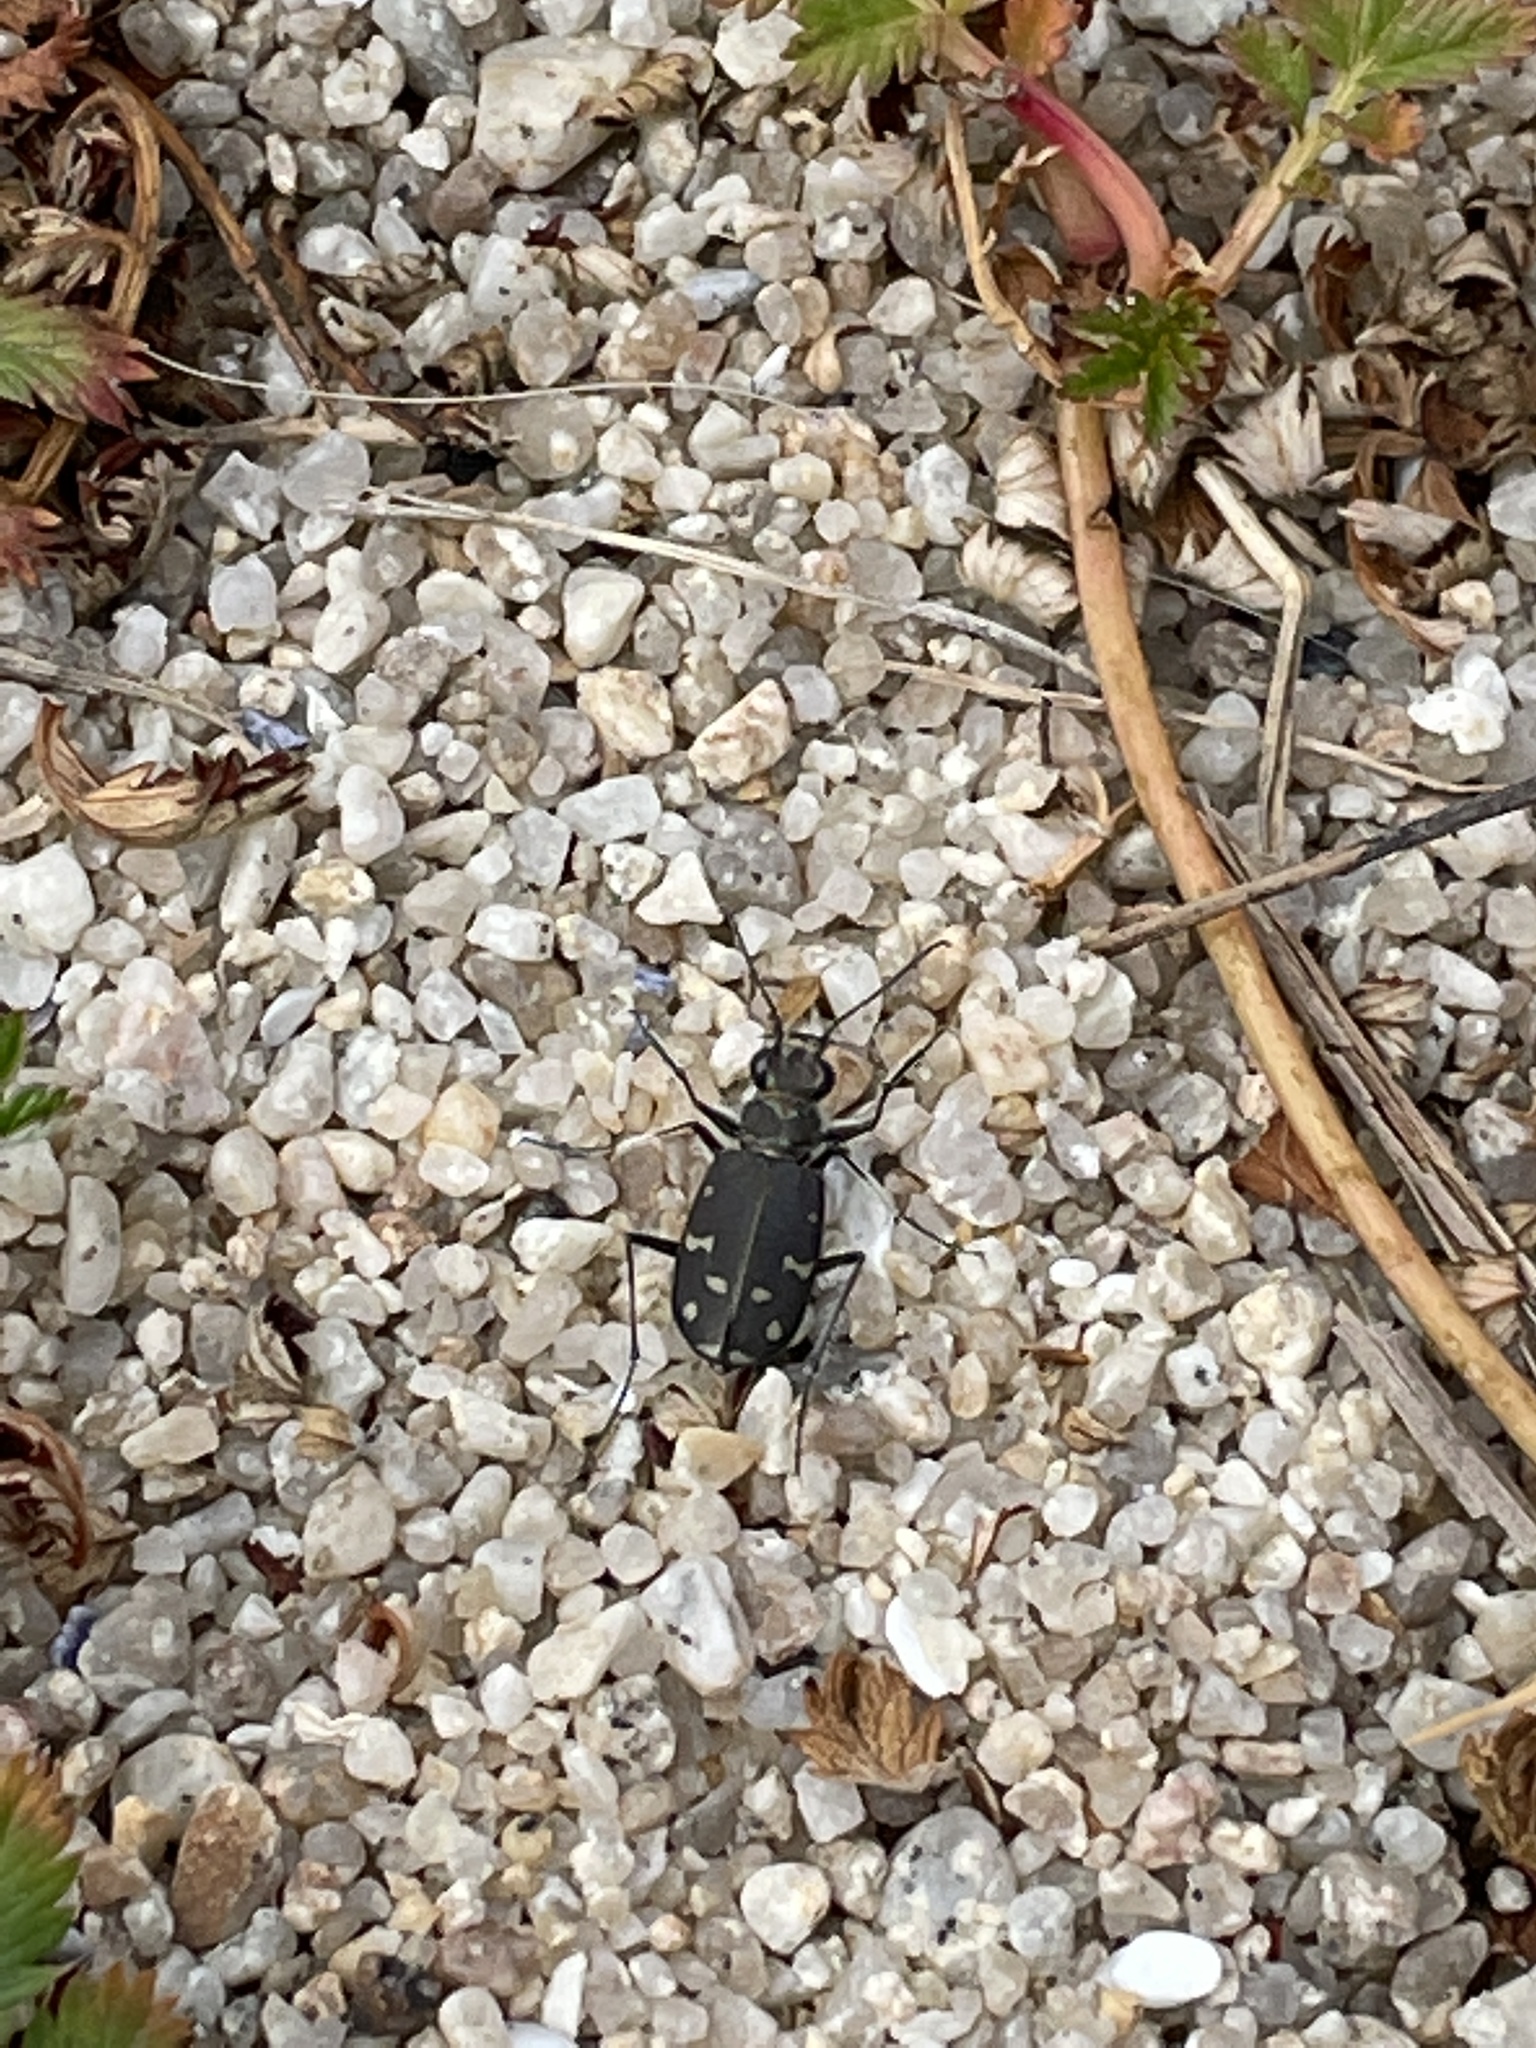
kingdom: Animalia
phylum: Arthropoda
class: Insecta
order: Coleoptera
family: Carabidae
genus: Cicindela
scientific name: Cicindela oregona
